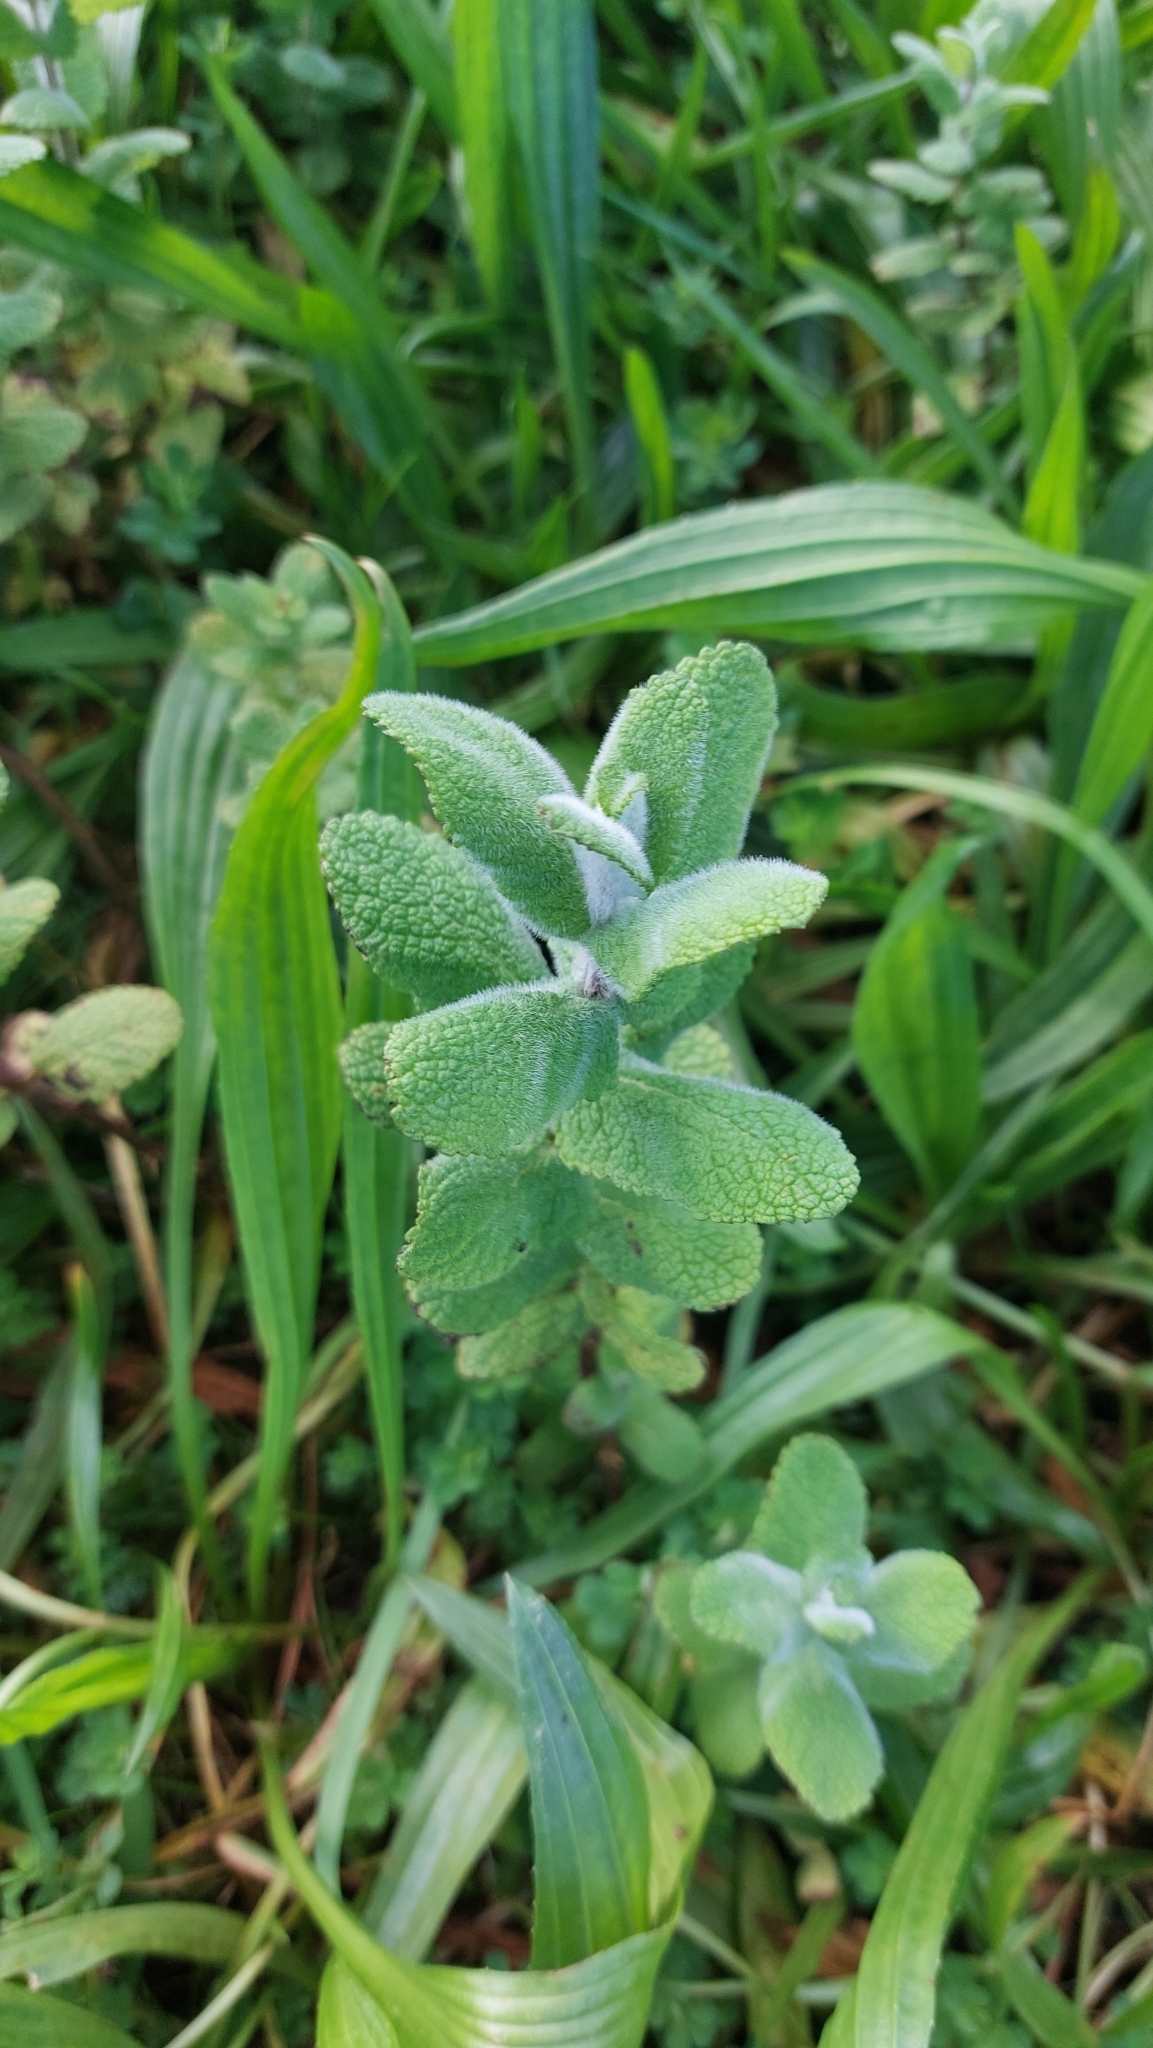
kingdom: Plantae
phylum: Tracheophyta
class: Magnoliopsida
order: Lamiales
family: Lamiaceae
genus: Mentha
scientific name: Mentha suaveolens
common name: Apple mint
